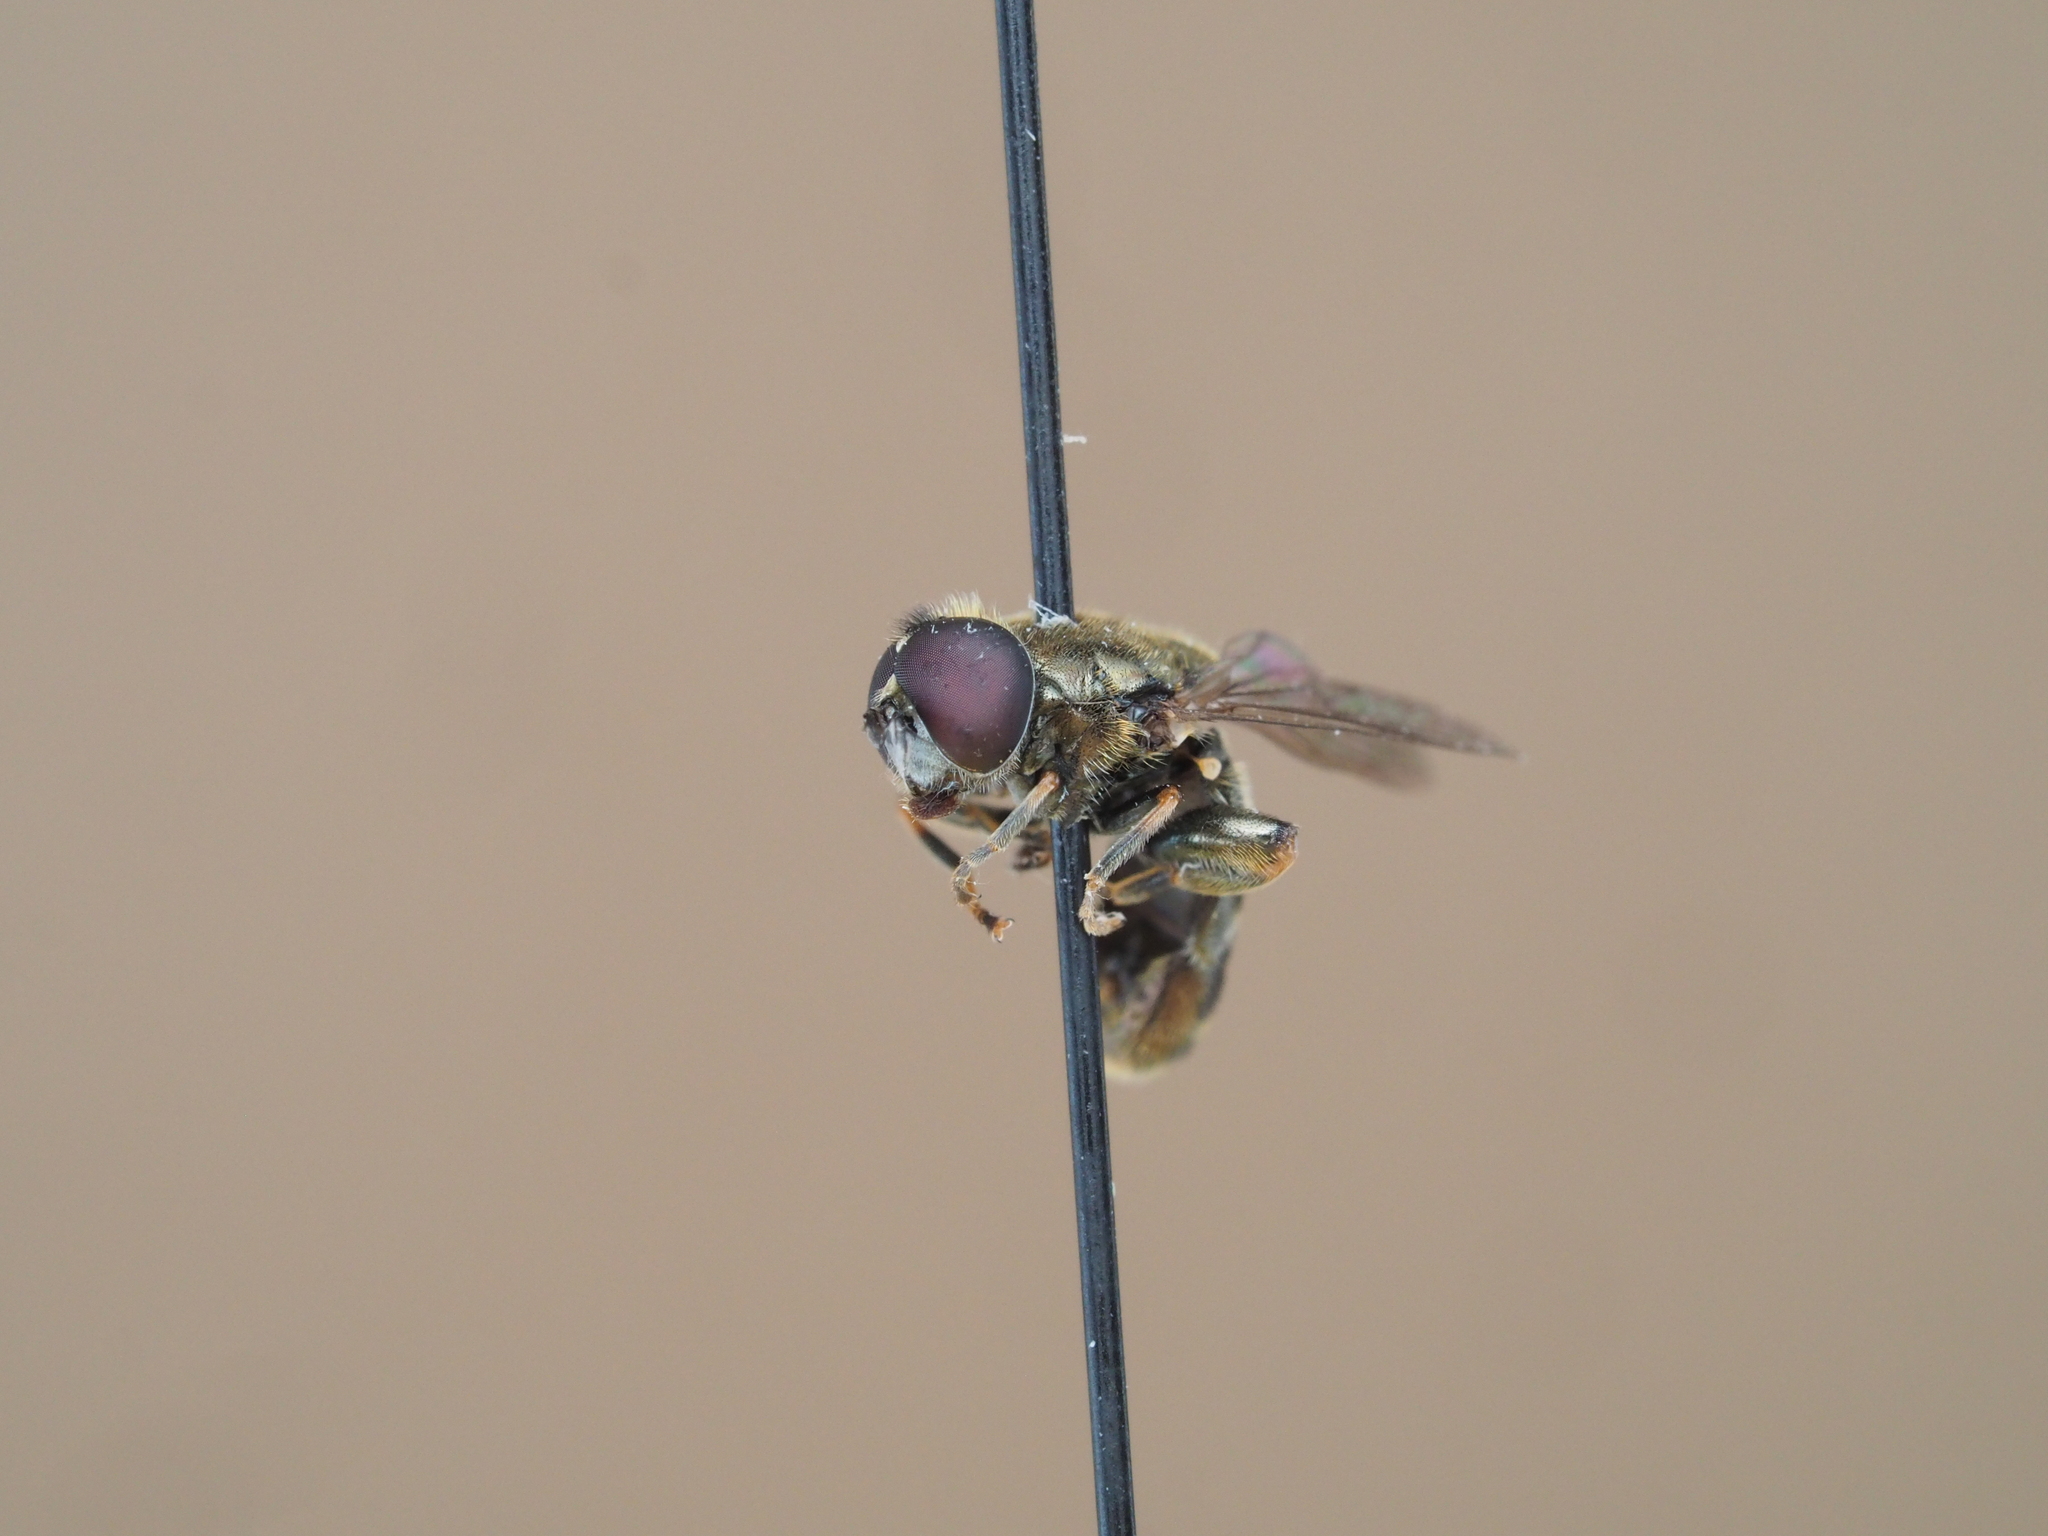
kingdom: Animalia
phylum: Arthropoda
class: Insecta
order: Diptera
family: Syrphidae
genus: Eumerus
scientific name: Eumerus funeralis
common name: Lesser bulb-fly
